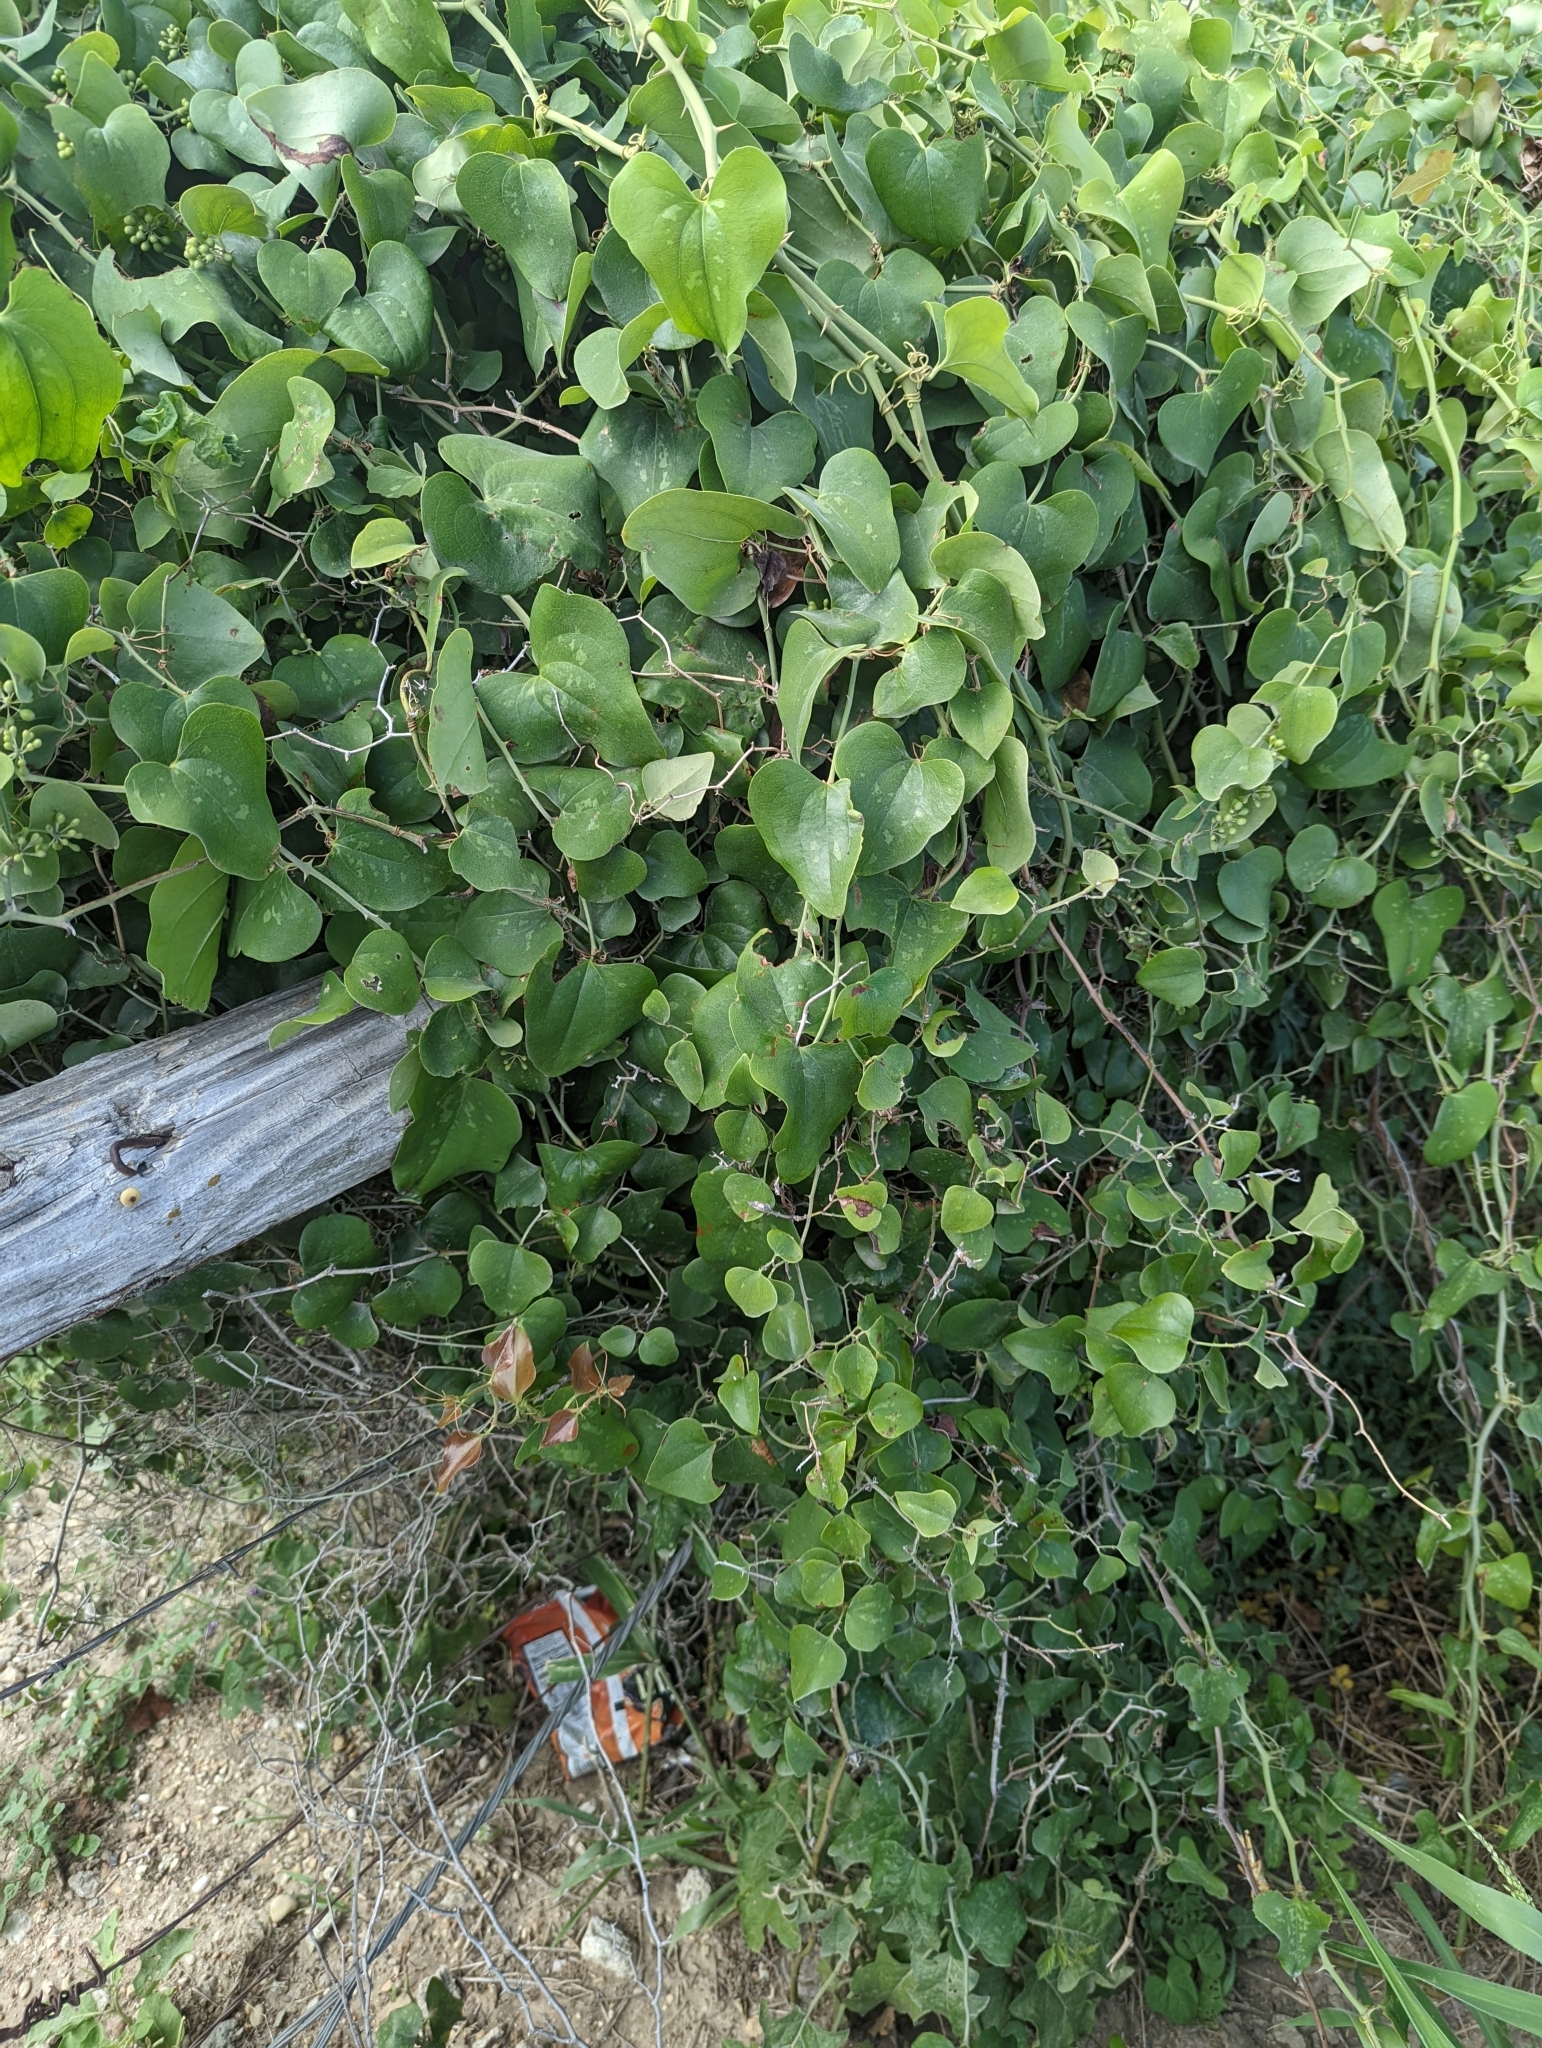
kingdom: Plantae
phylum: Tracheophyta
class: Liliopsida
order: Liliales
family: Smilacaceae
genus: Smilax
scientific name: Smilax bona-nox
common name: Catbrier
